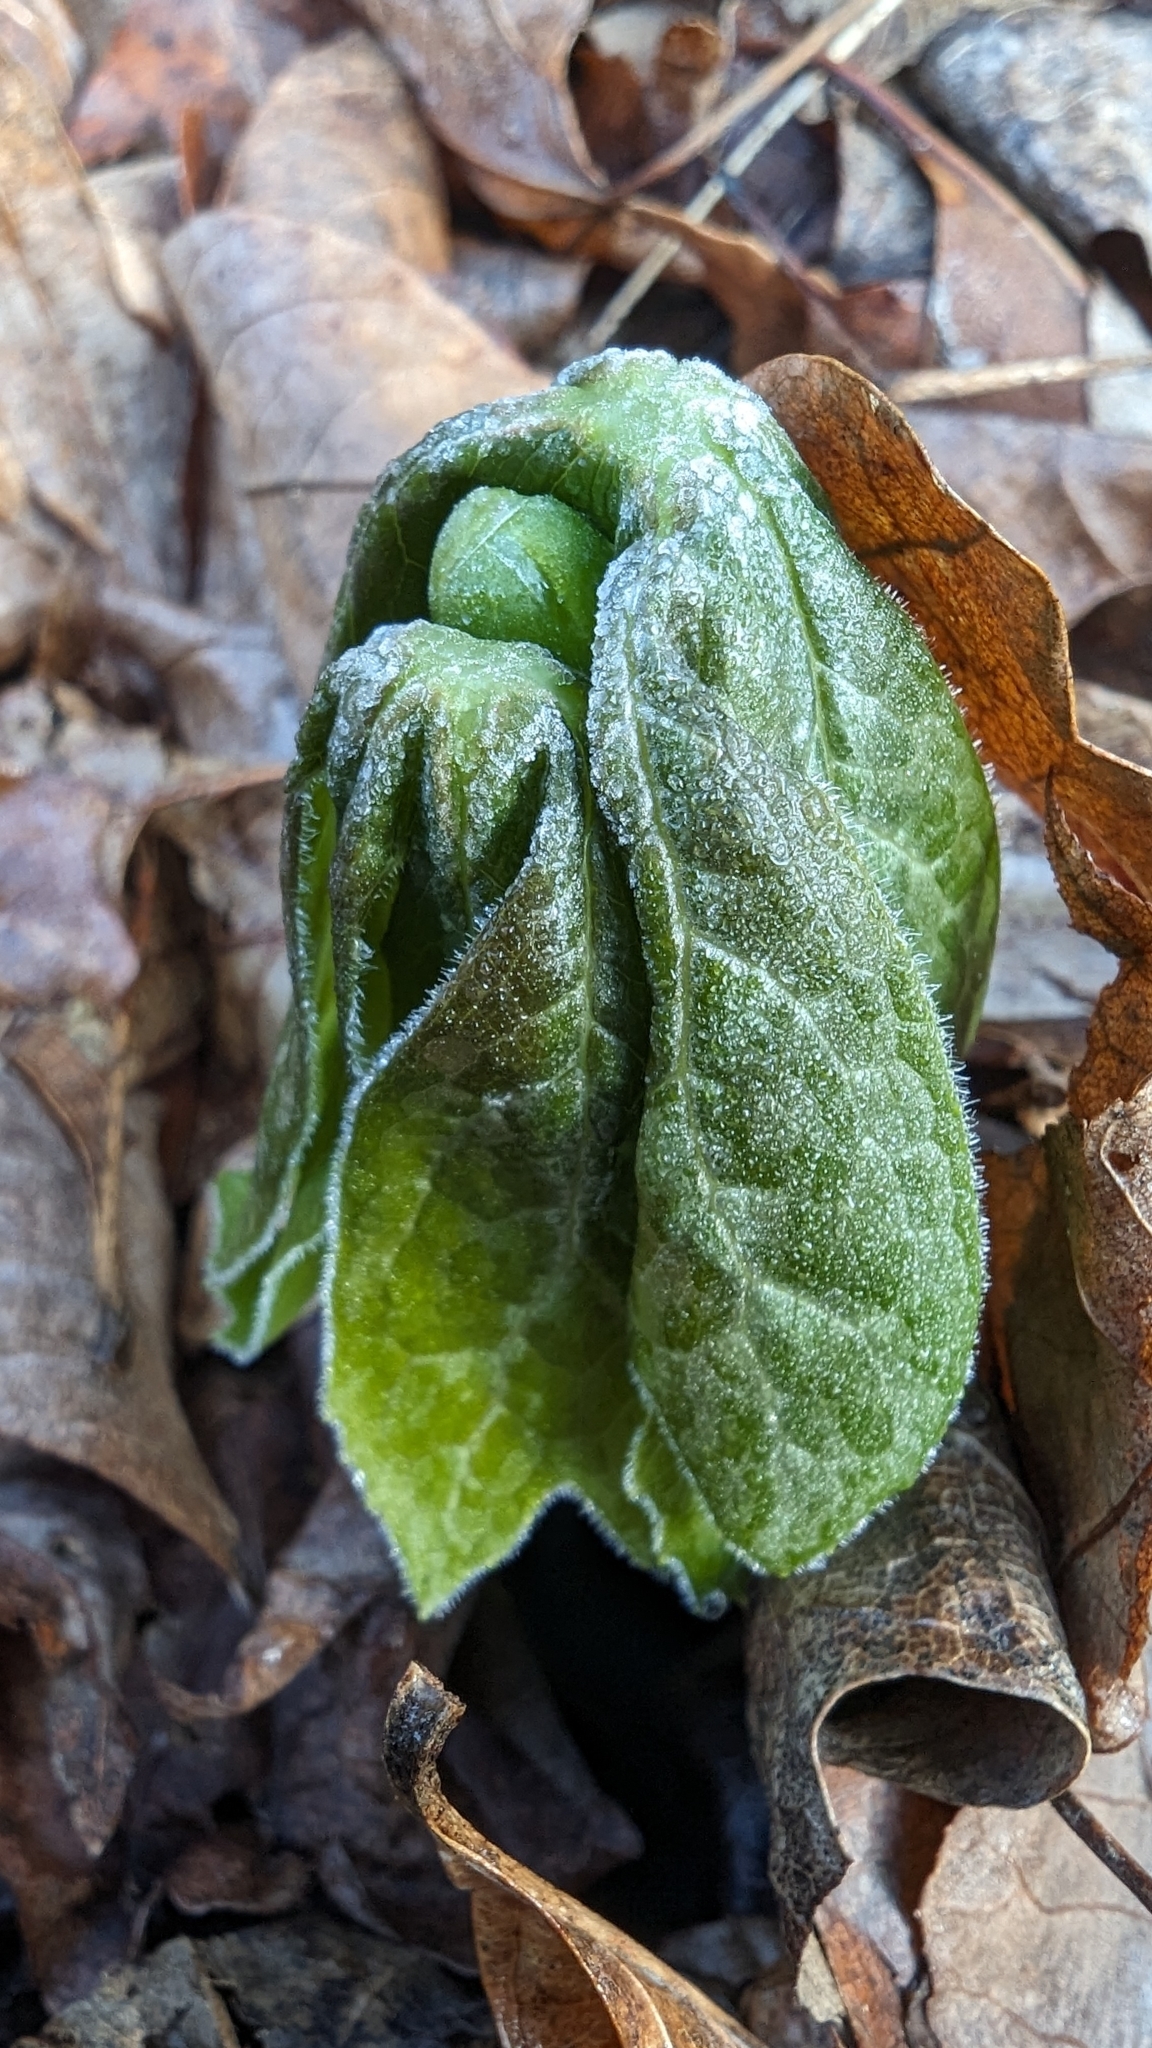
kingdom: Plantae
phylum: Tracheophyta
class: Magnoliopsida
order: Ranunculales
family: Berberidaceae
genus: Podophyllum
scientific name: Podophyllum peltatum
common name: Wild mandrake
